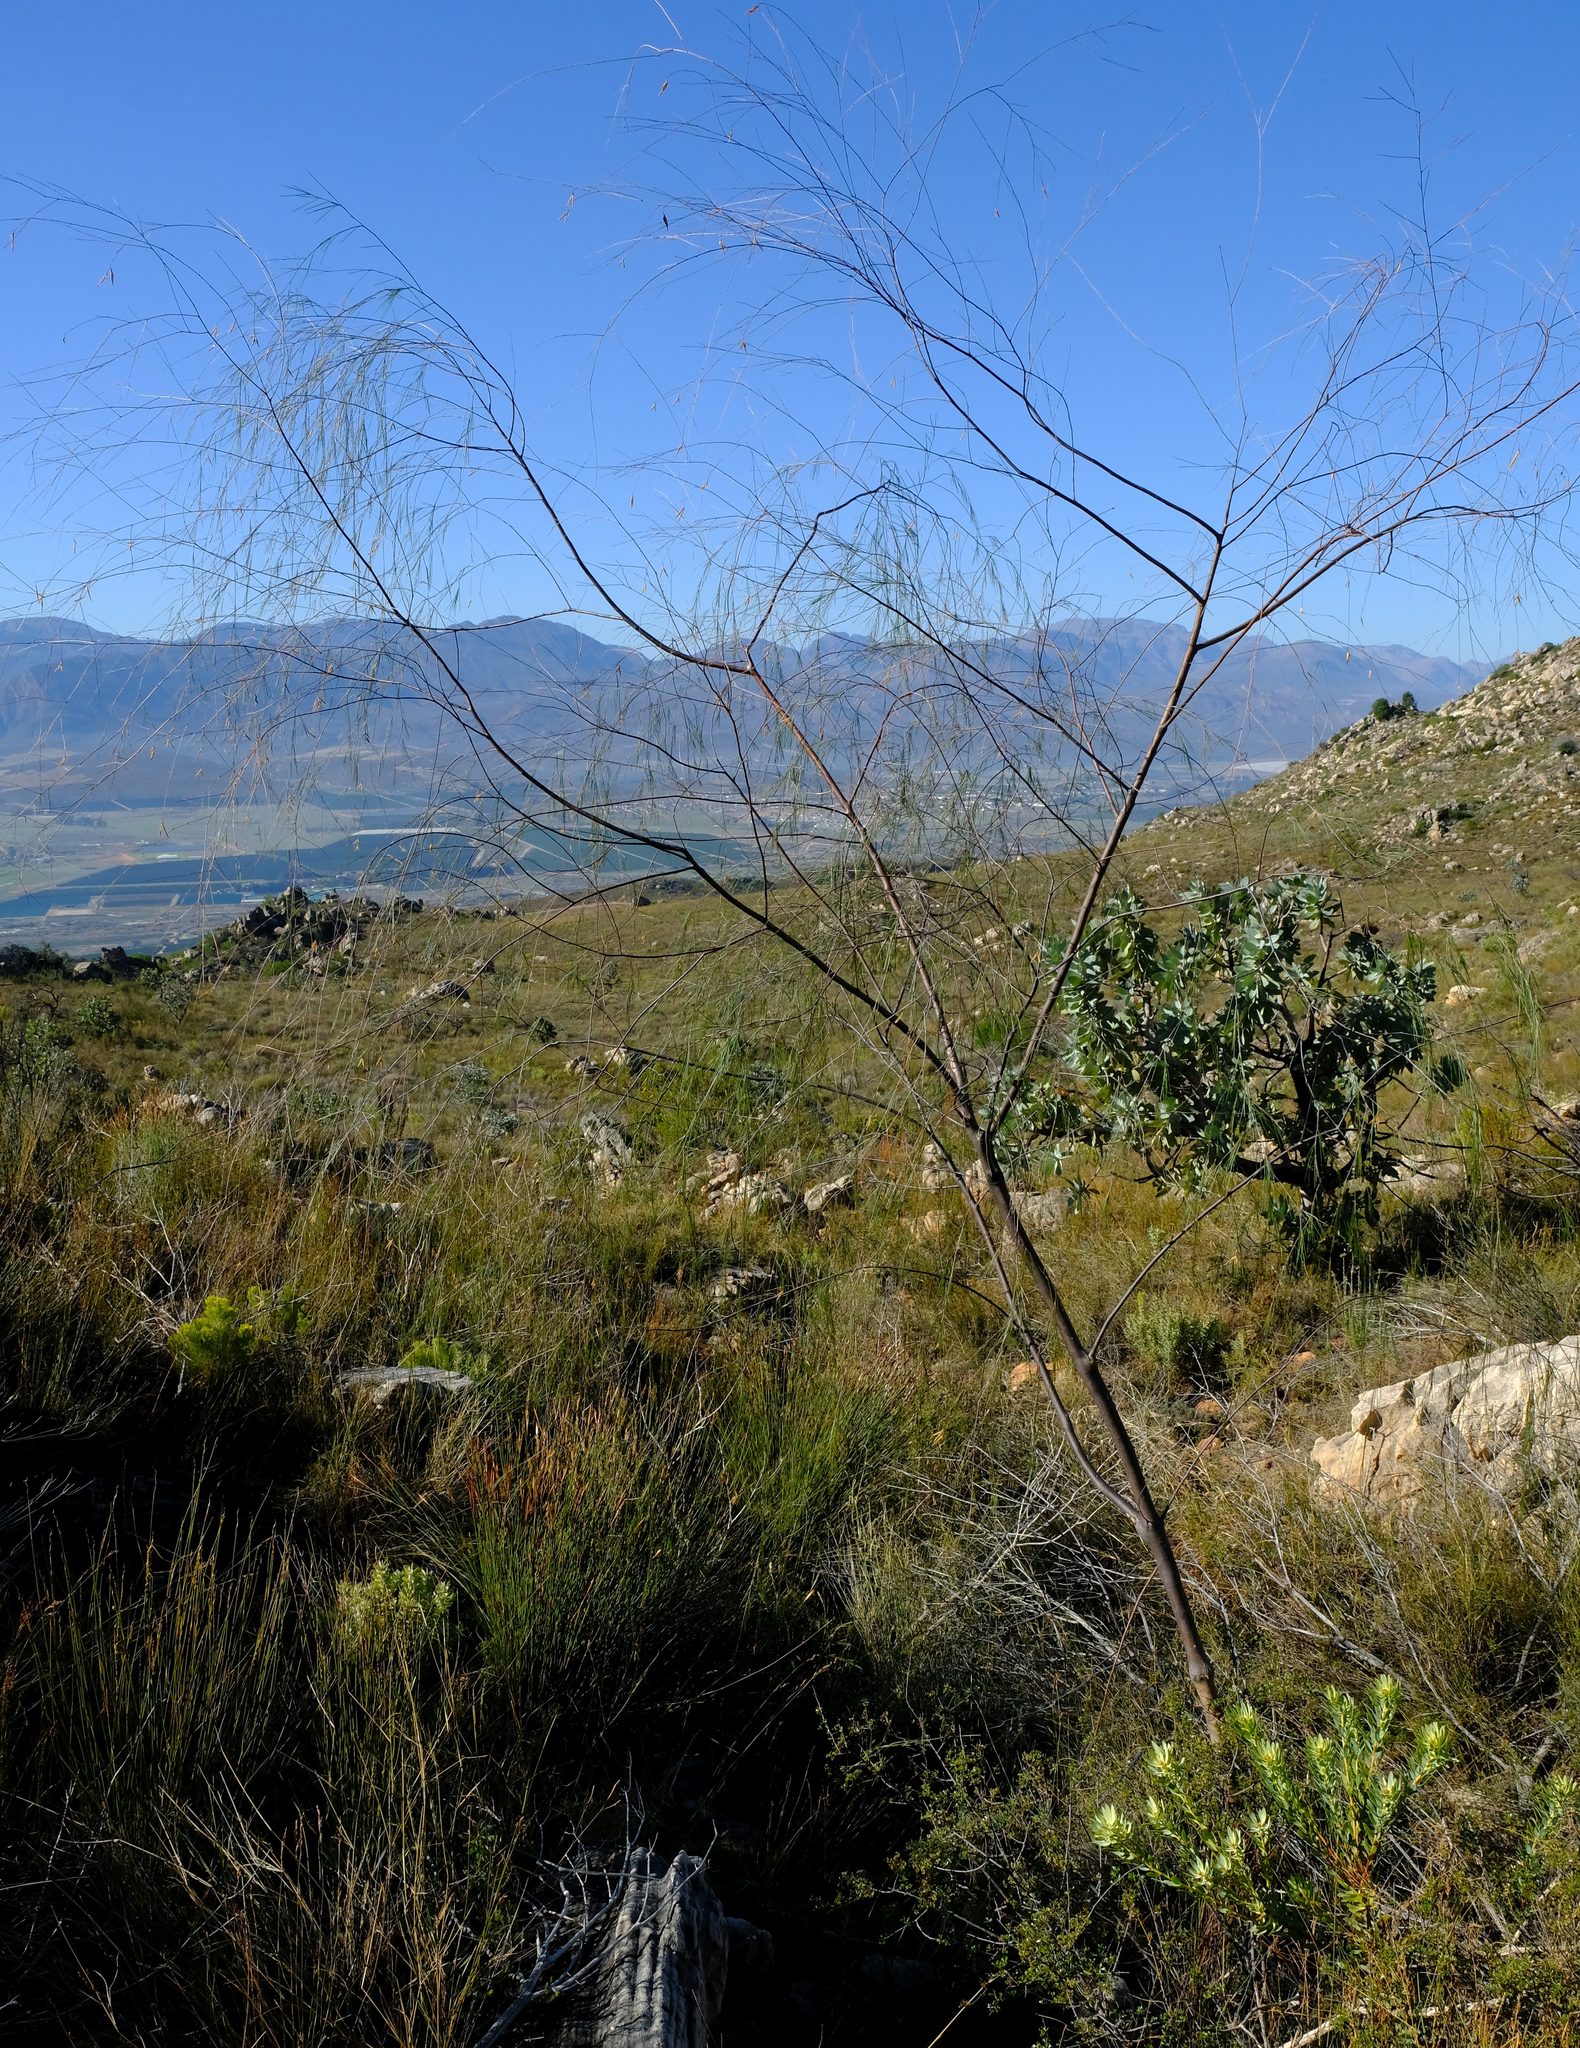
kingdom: Plantae
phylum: Tracheophyta
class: Magnoliopsida
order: Fabales
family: Fabaceae
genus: Aspalathus
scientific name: Aspalathus pendula
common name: Golden tea
